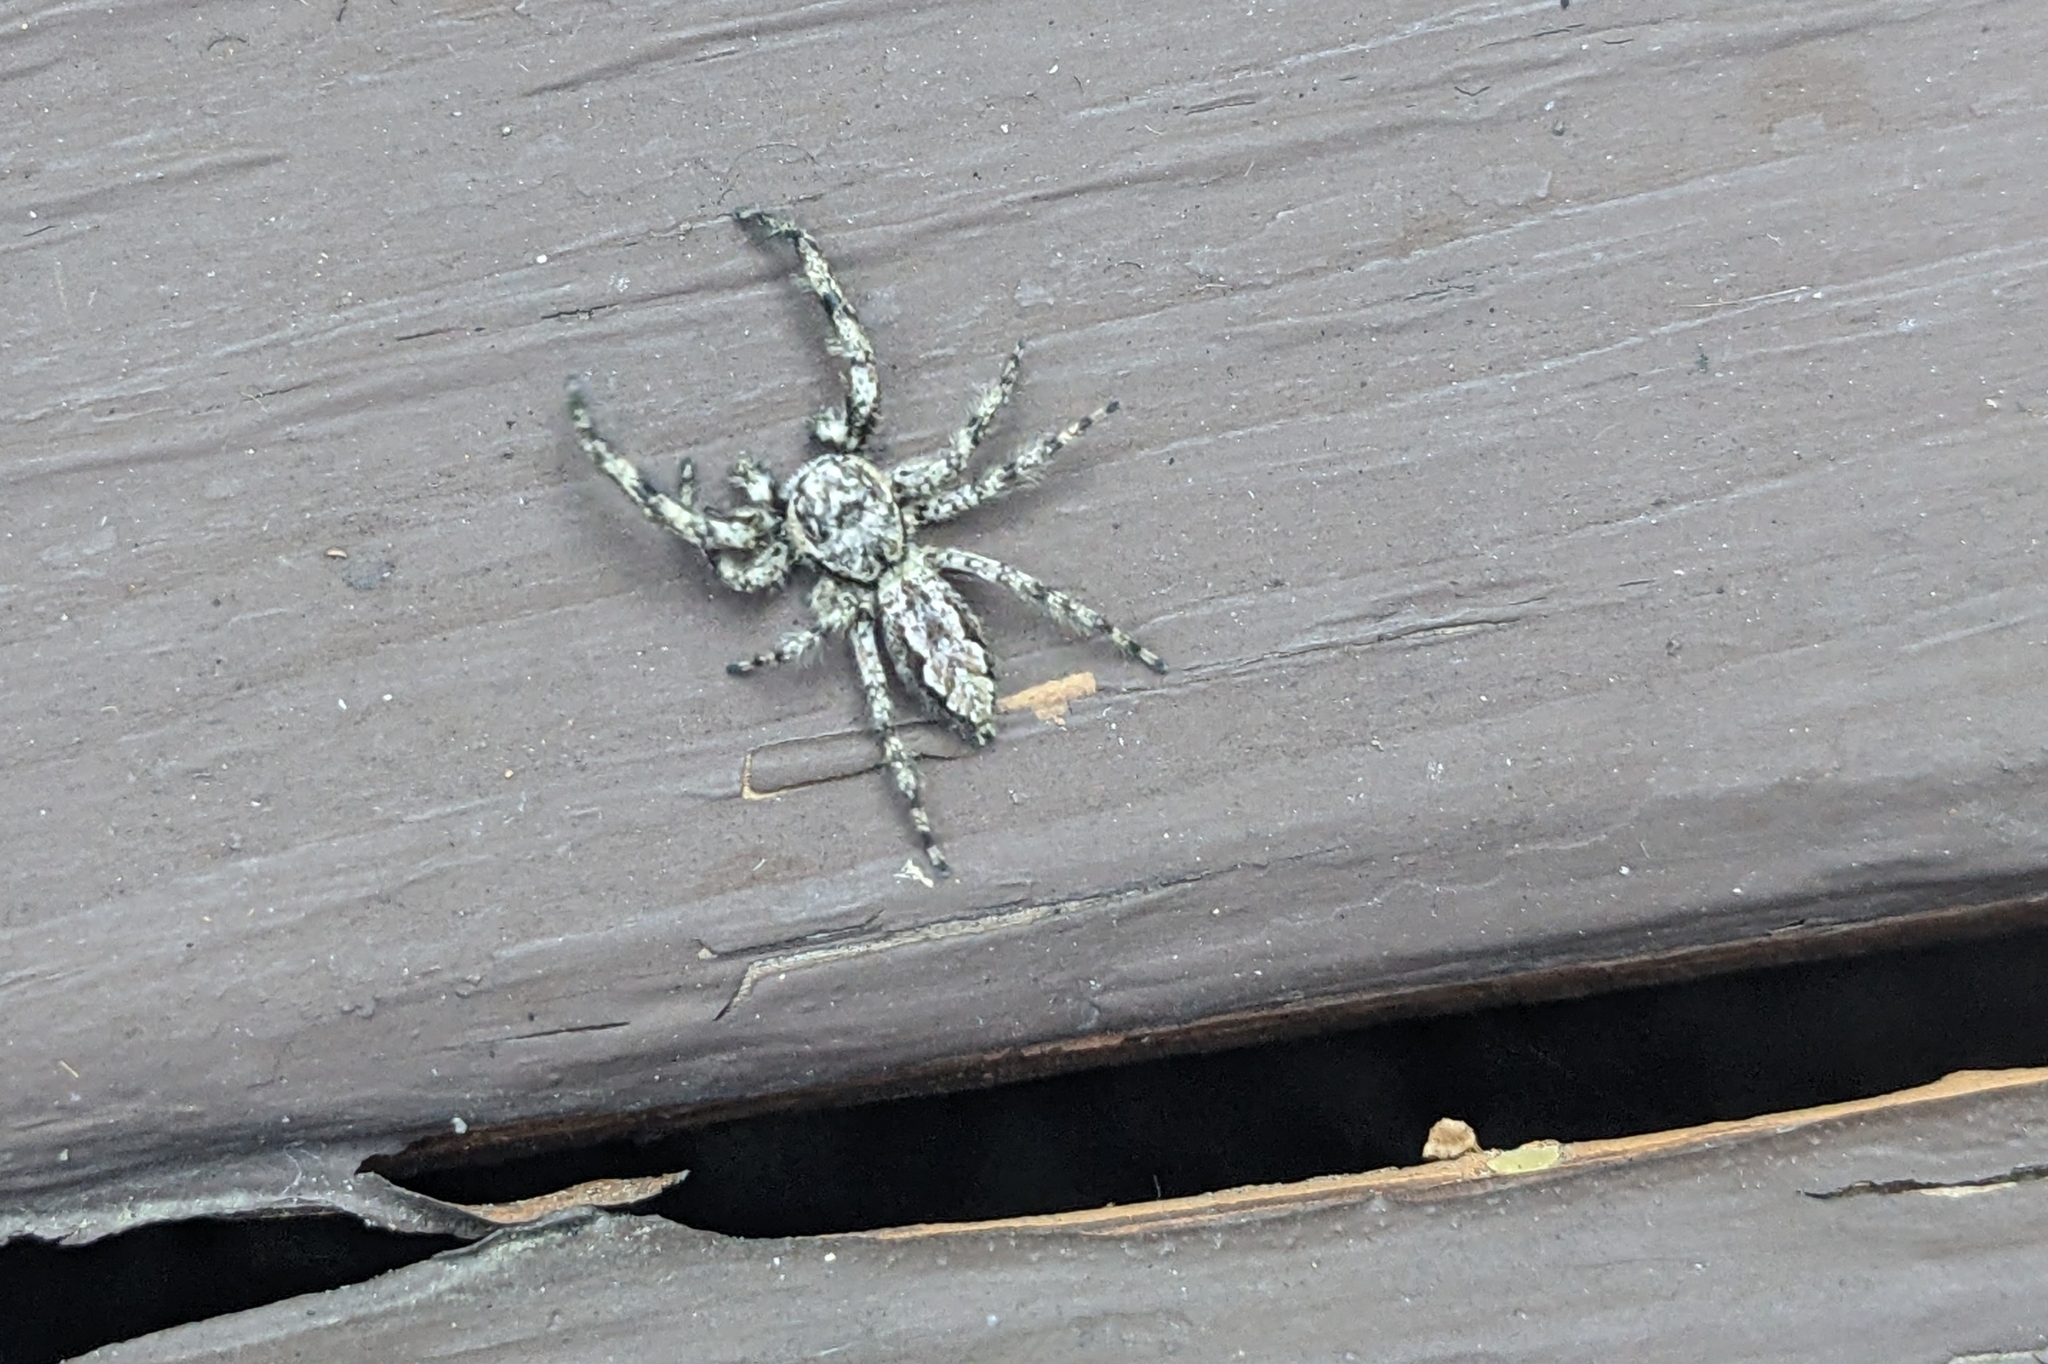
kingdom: Animalia
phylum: Arthropoda
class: Arachnida
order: Araneae
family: Salticidae
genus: Platycryptus
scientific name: Platycryptus undatus
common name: Tan jumping spider
